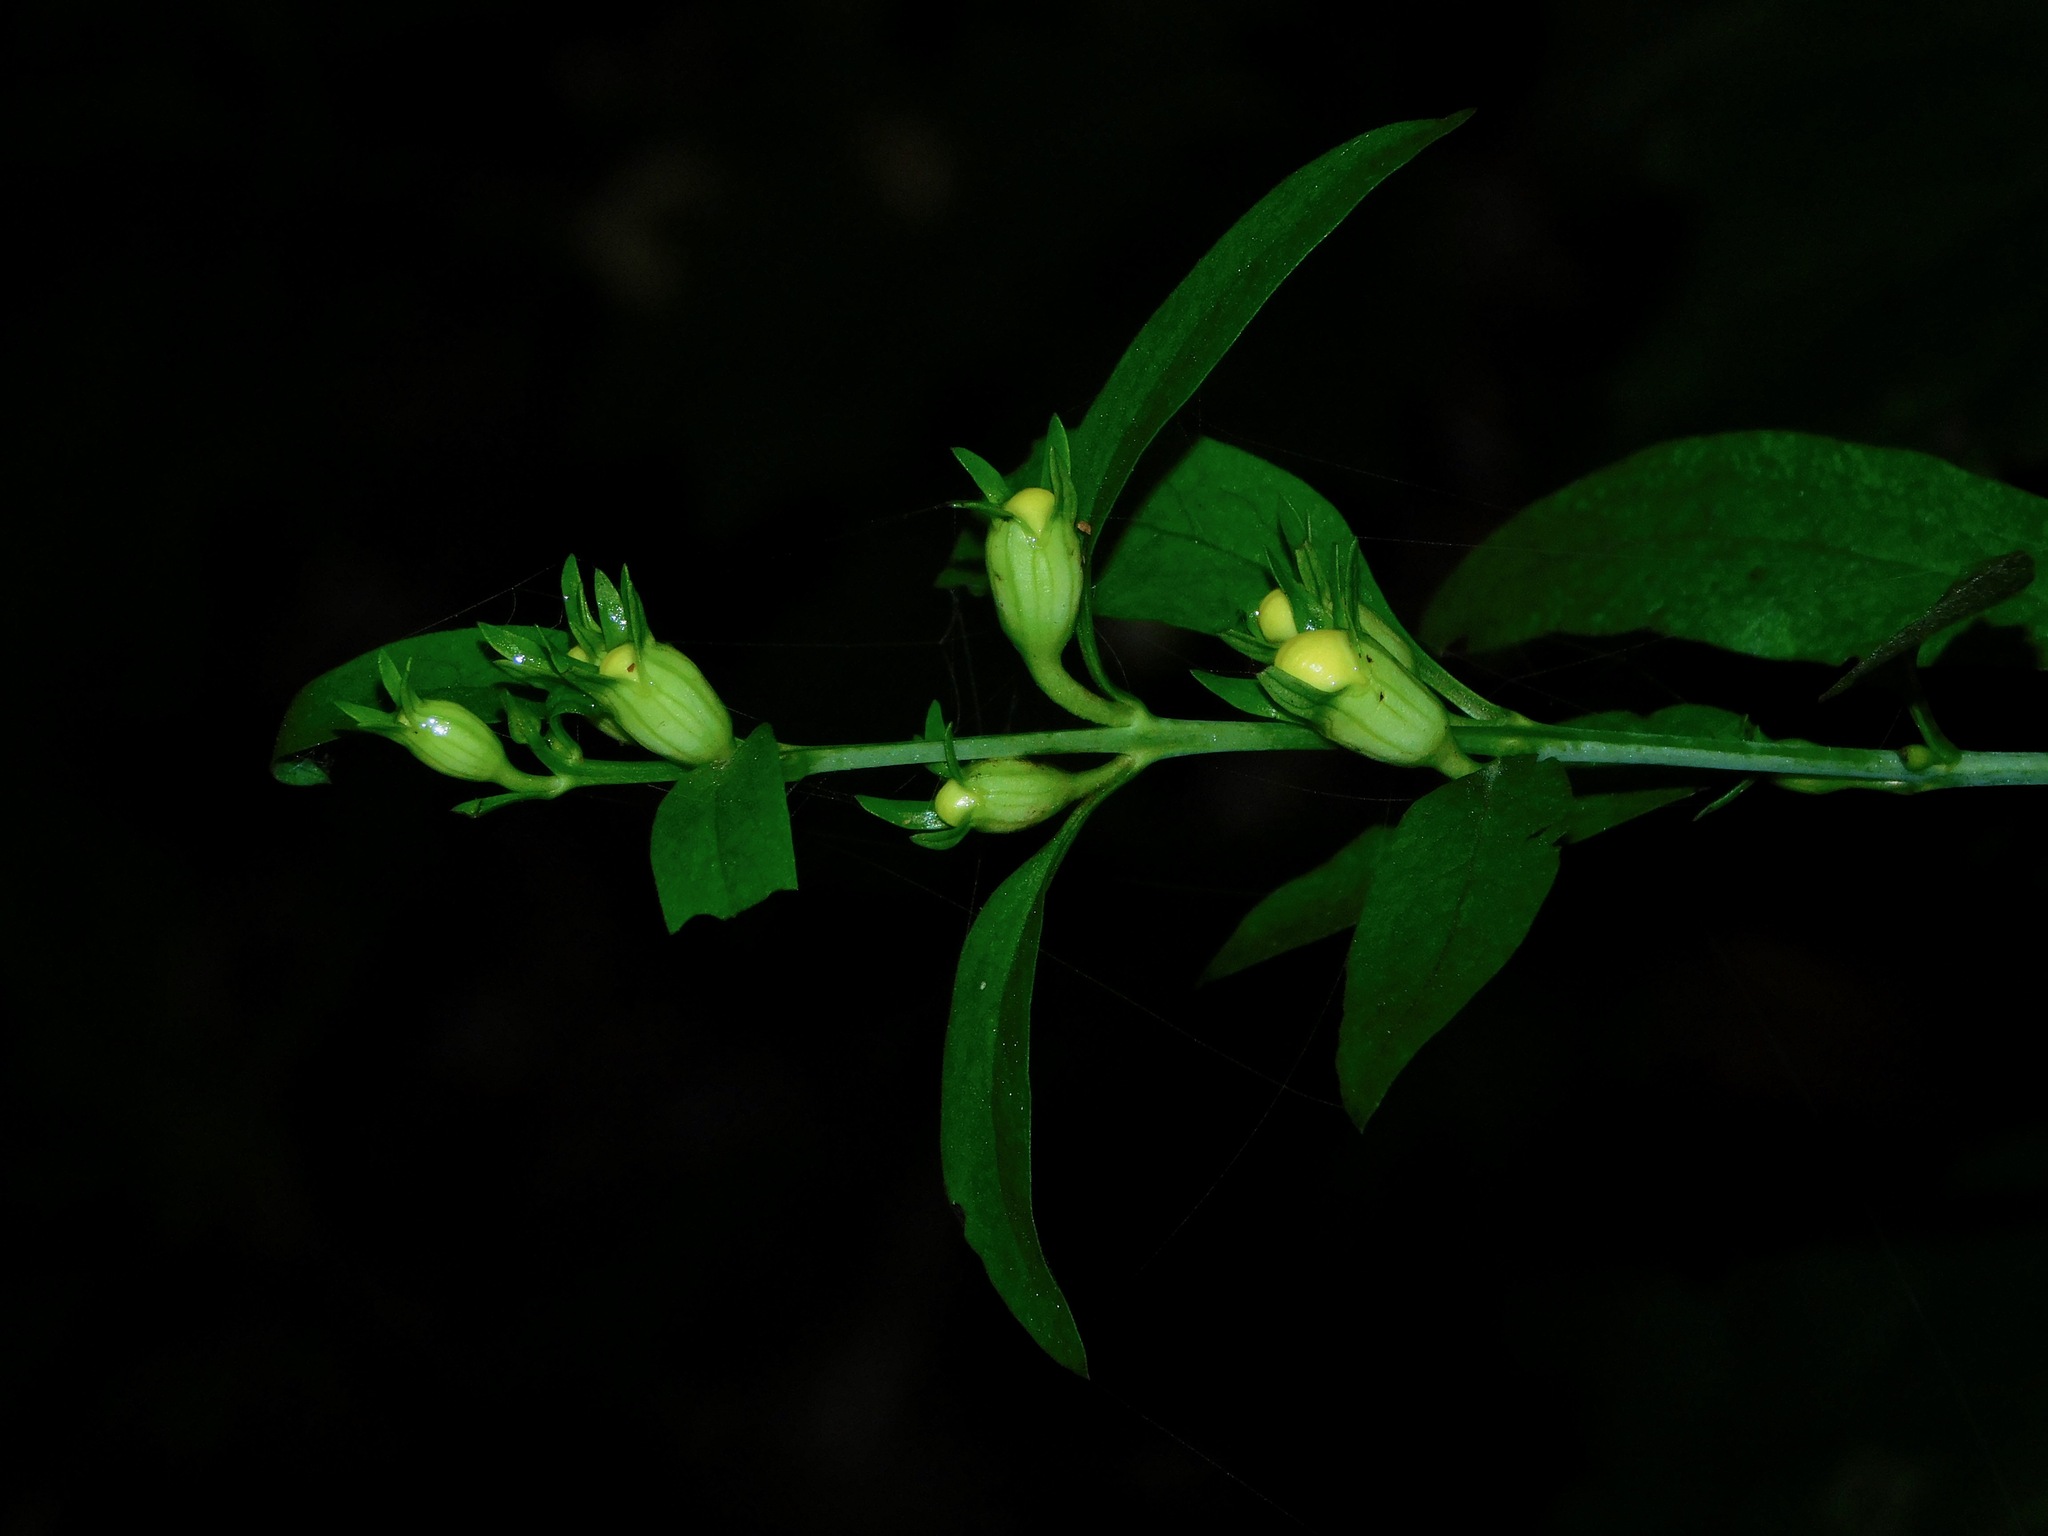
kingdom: Plantae
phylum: Tracheophyta
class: Magnoliopsida
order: Lamiales
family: Orobanchaceae
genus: Aureolaria
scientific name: Aureolaria flava
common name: Smooth false foxglove
